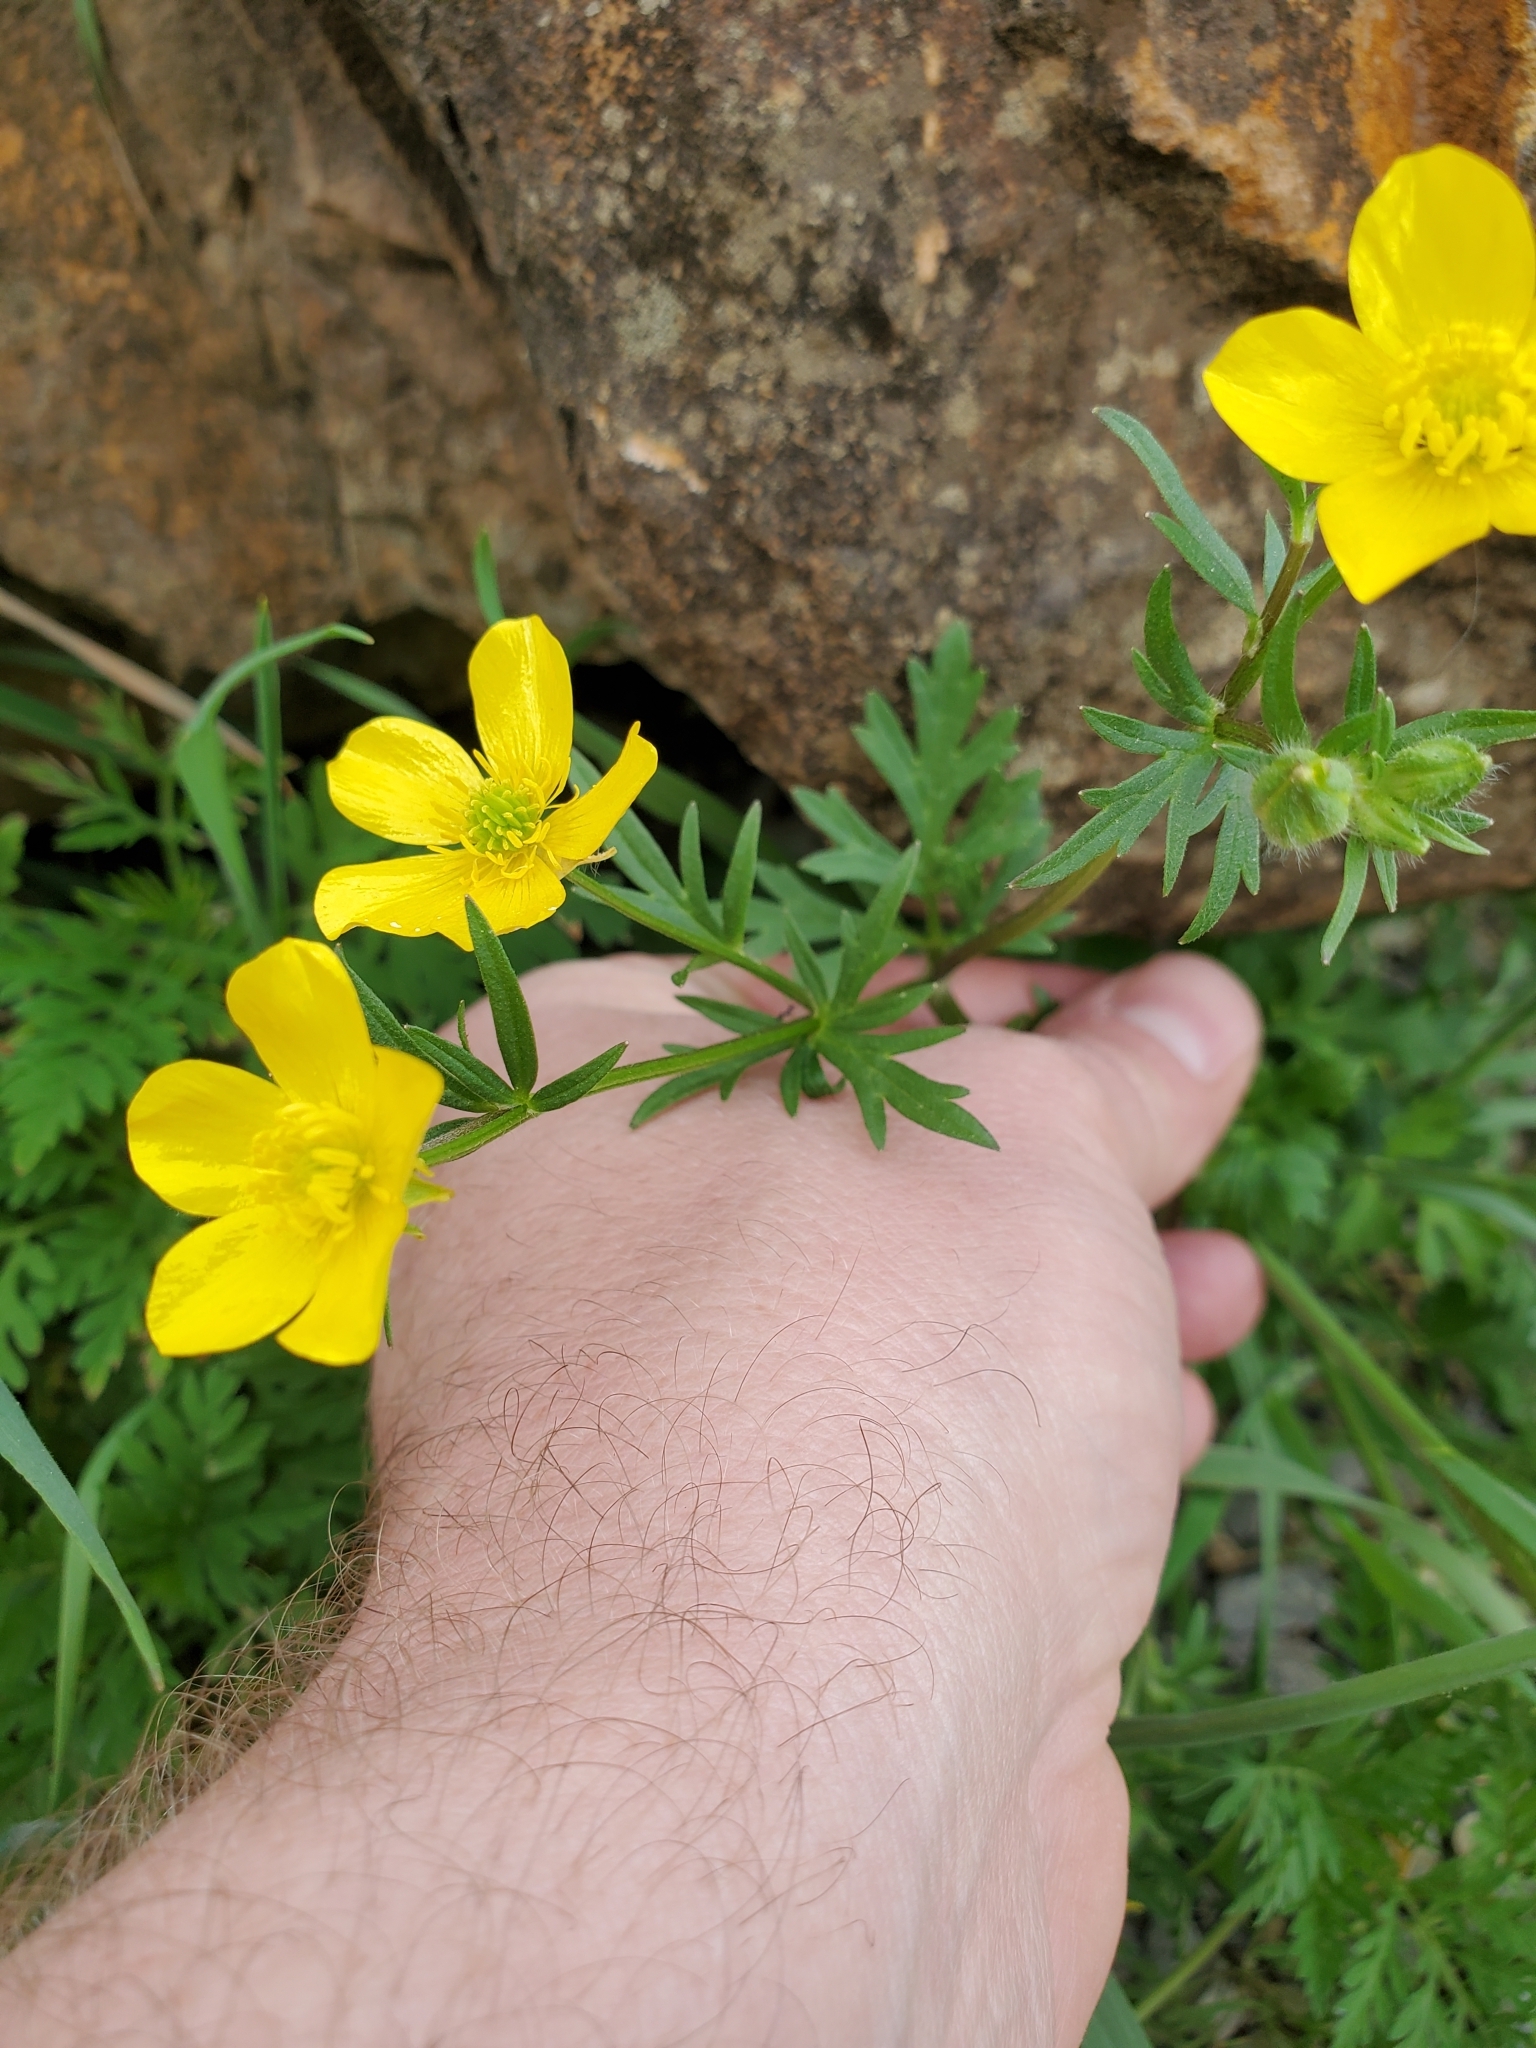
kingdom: Plantae
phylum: Tracheophyta
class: Magnoliopsida
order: Ranunculales
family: Ranunculaceae
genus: Ranunculus
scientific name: Ranunculus sardous
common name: Hairy buttercup
